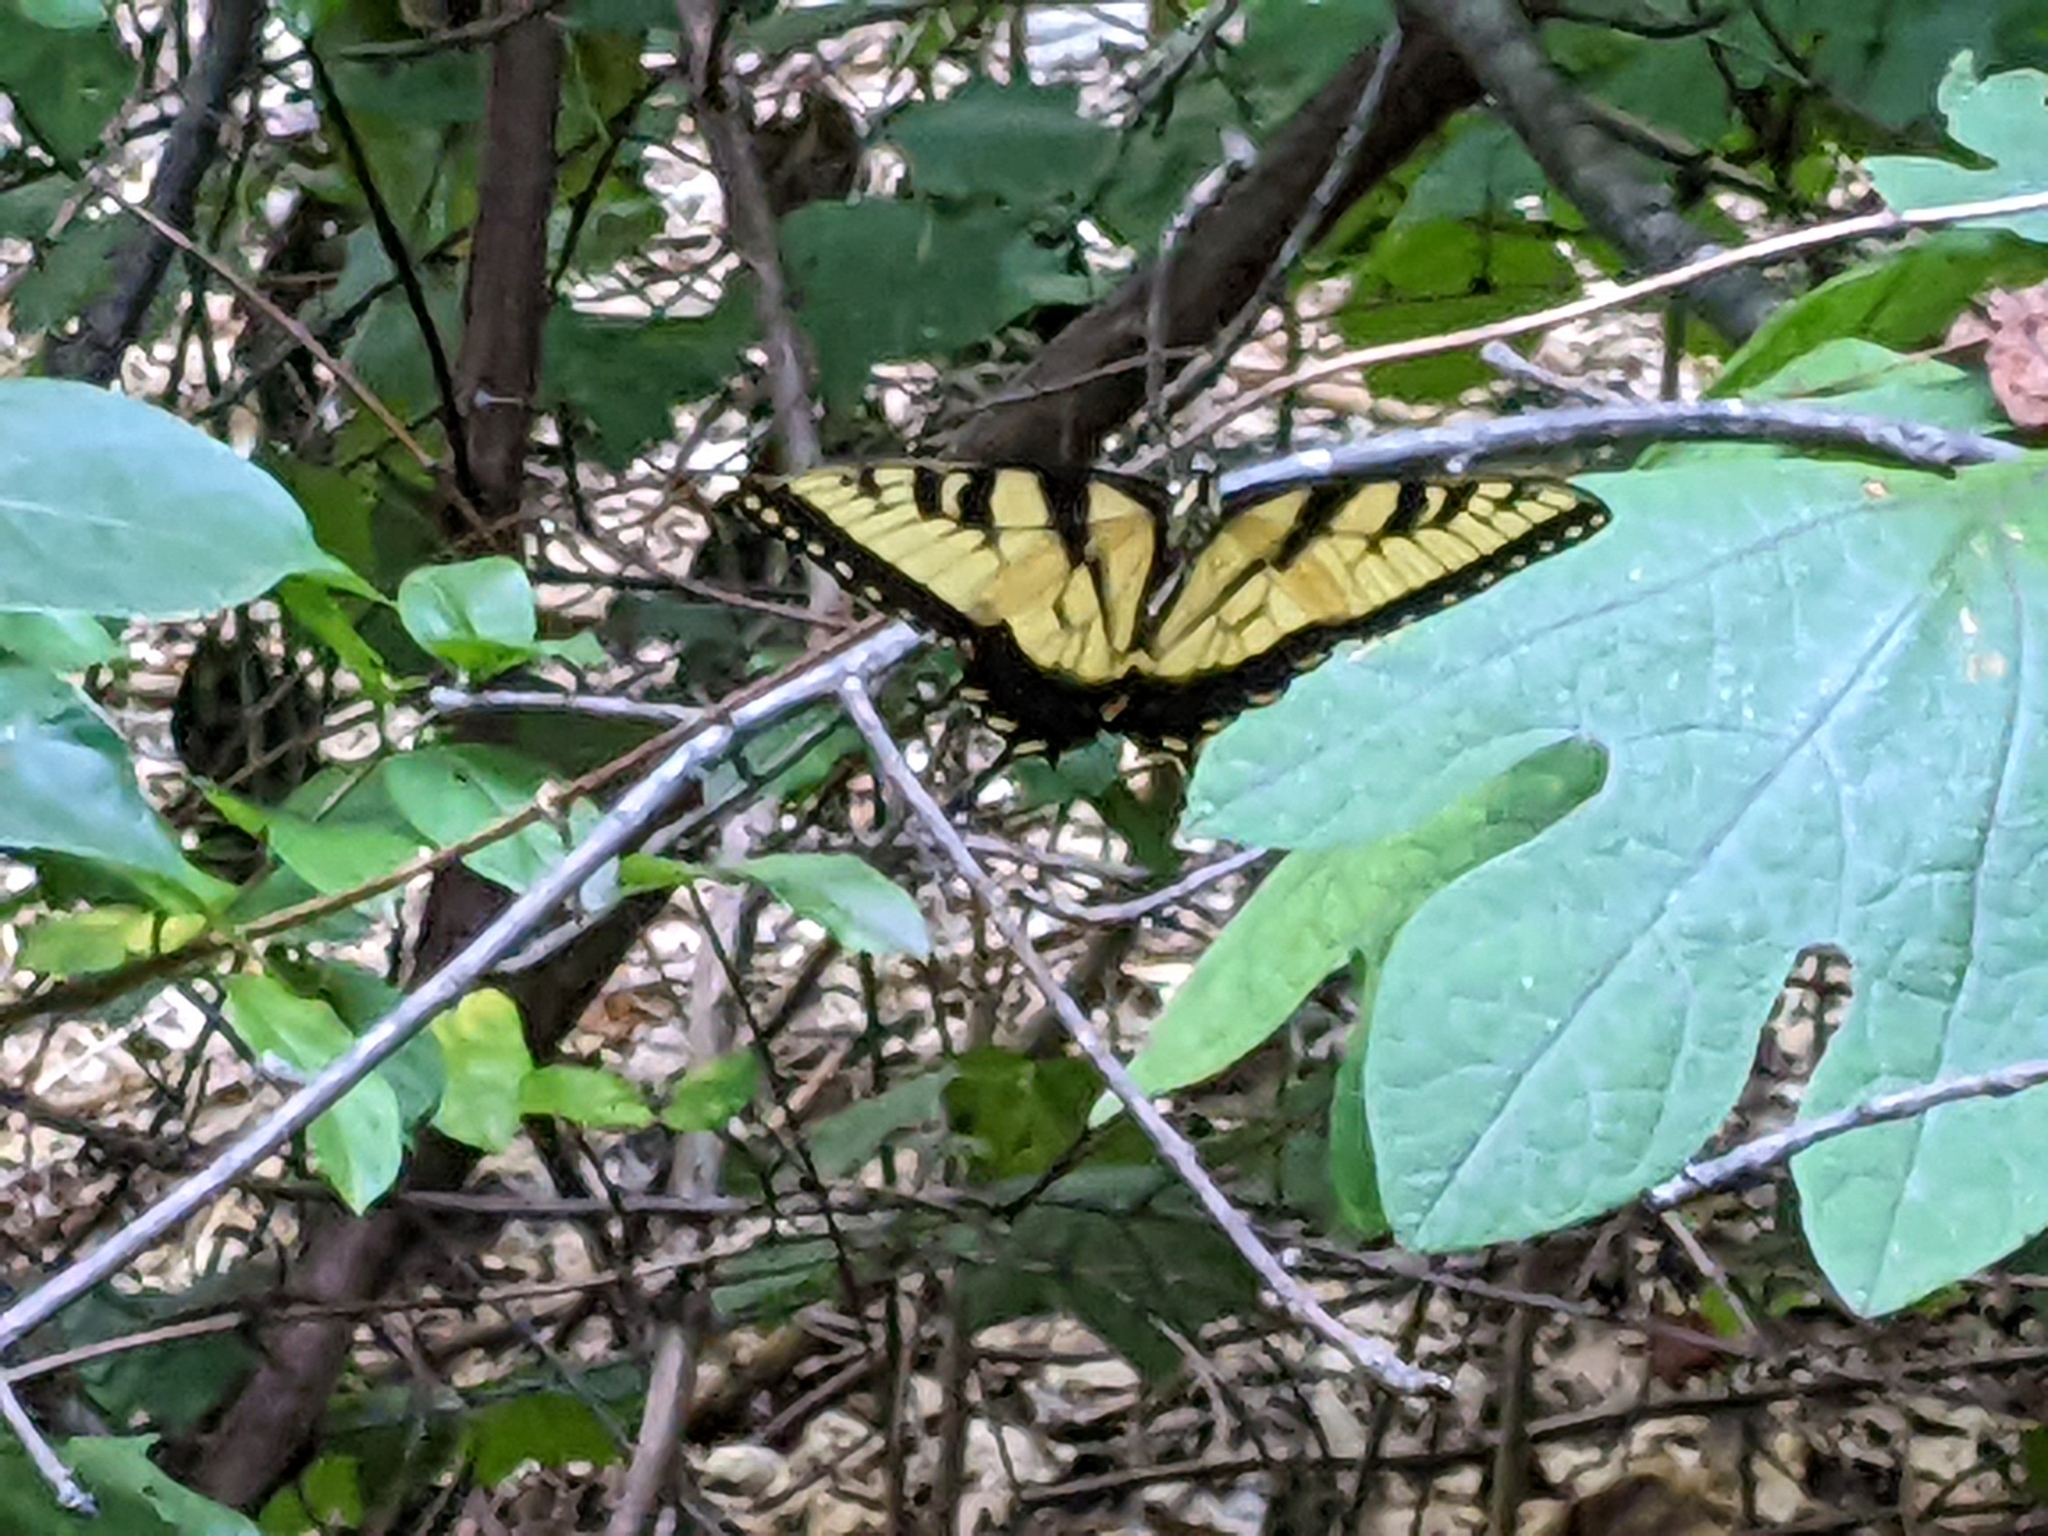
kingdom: Animalia
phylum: Arthropoda
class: Insecta
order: Lepidoptera
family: Papilionidae
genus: Papilio
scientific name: Papilio glaucus
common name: Tiger swallowtail
